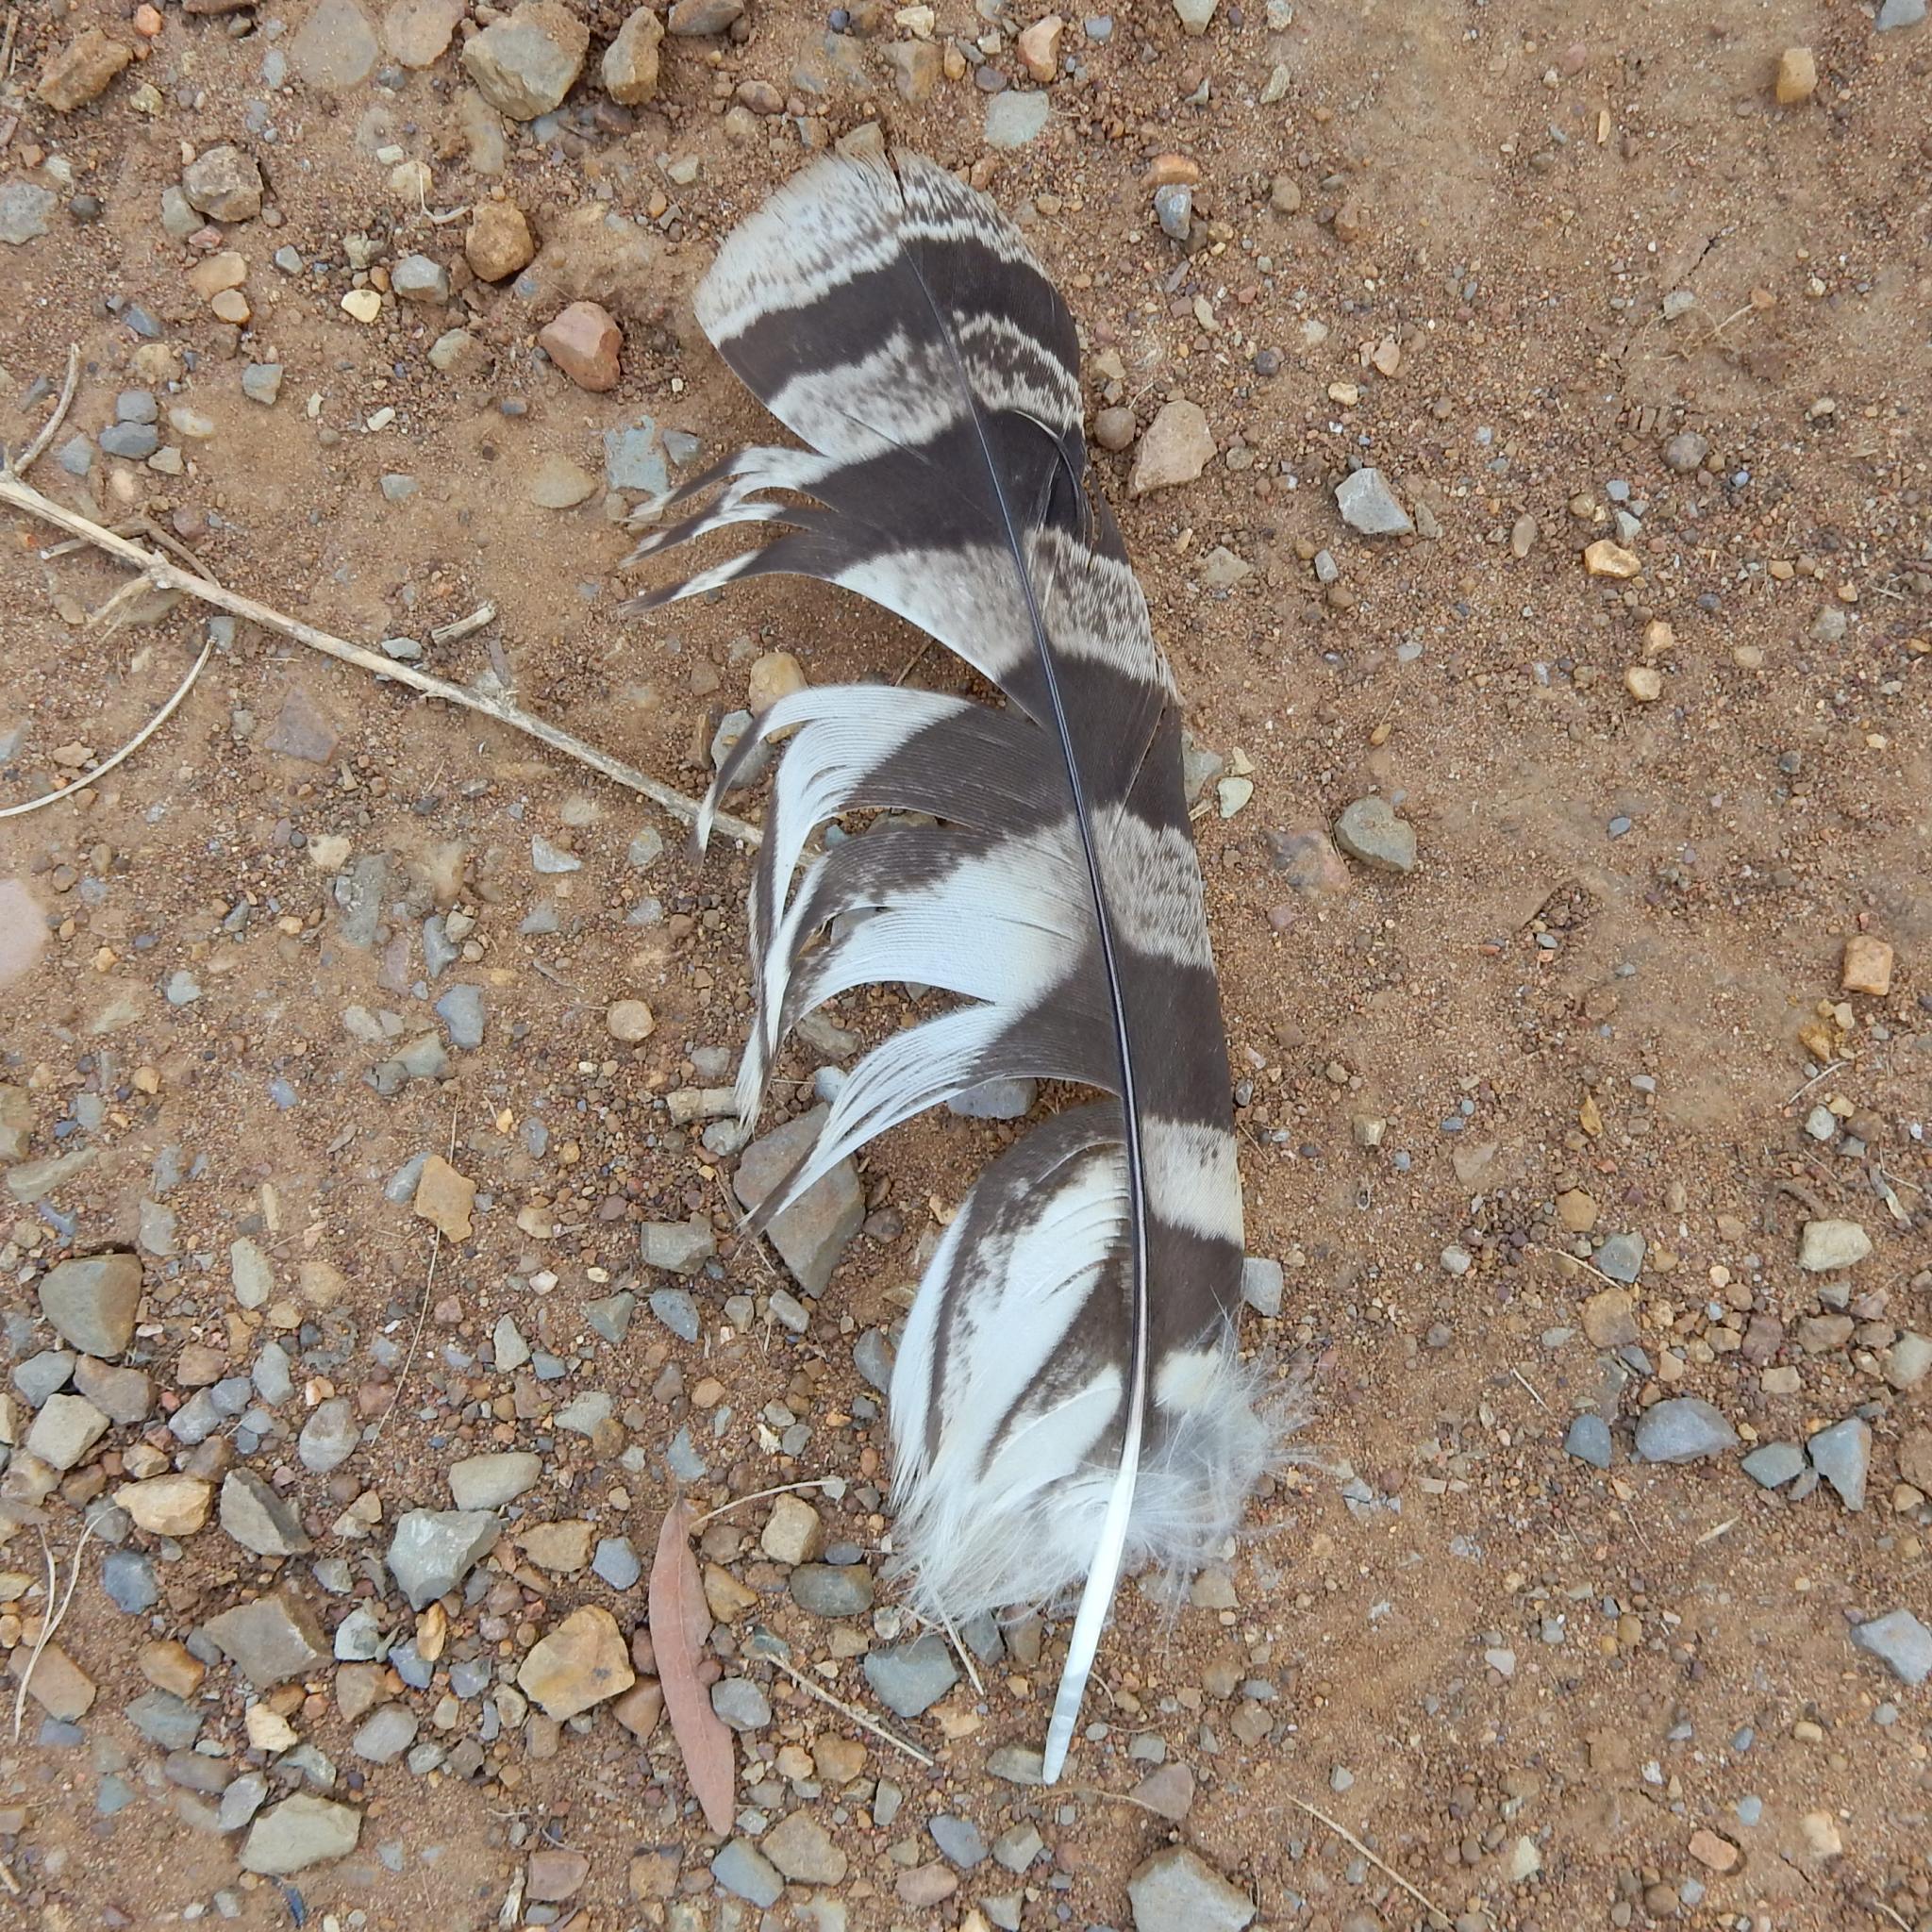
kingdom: Animalia
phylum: Chordata
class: Aves
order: Strigiformes
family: Strigidae
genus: Bubo
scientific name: Bubo africanus
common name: Spotted eagle-owl
